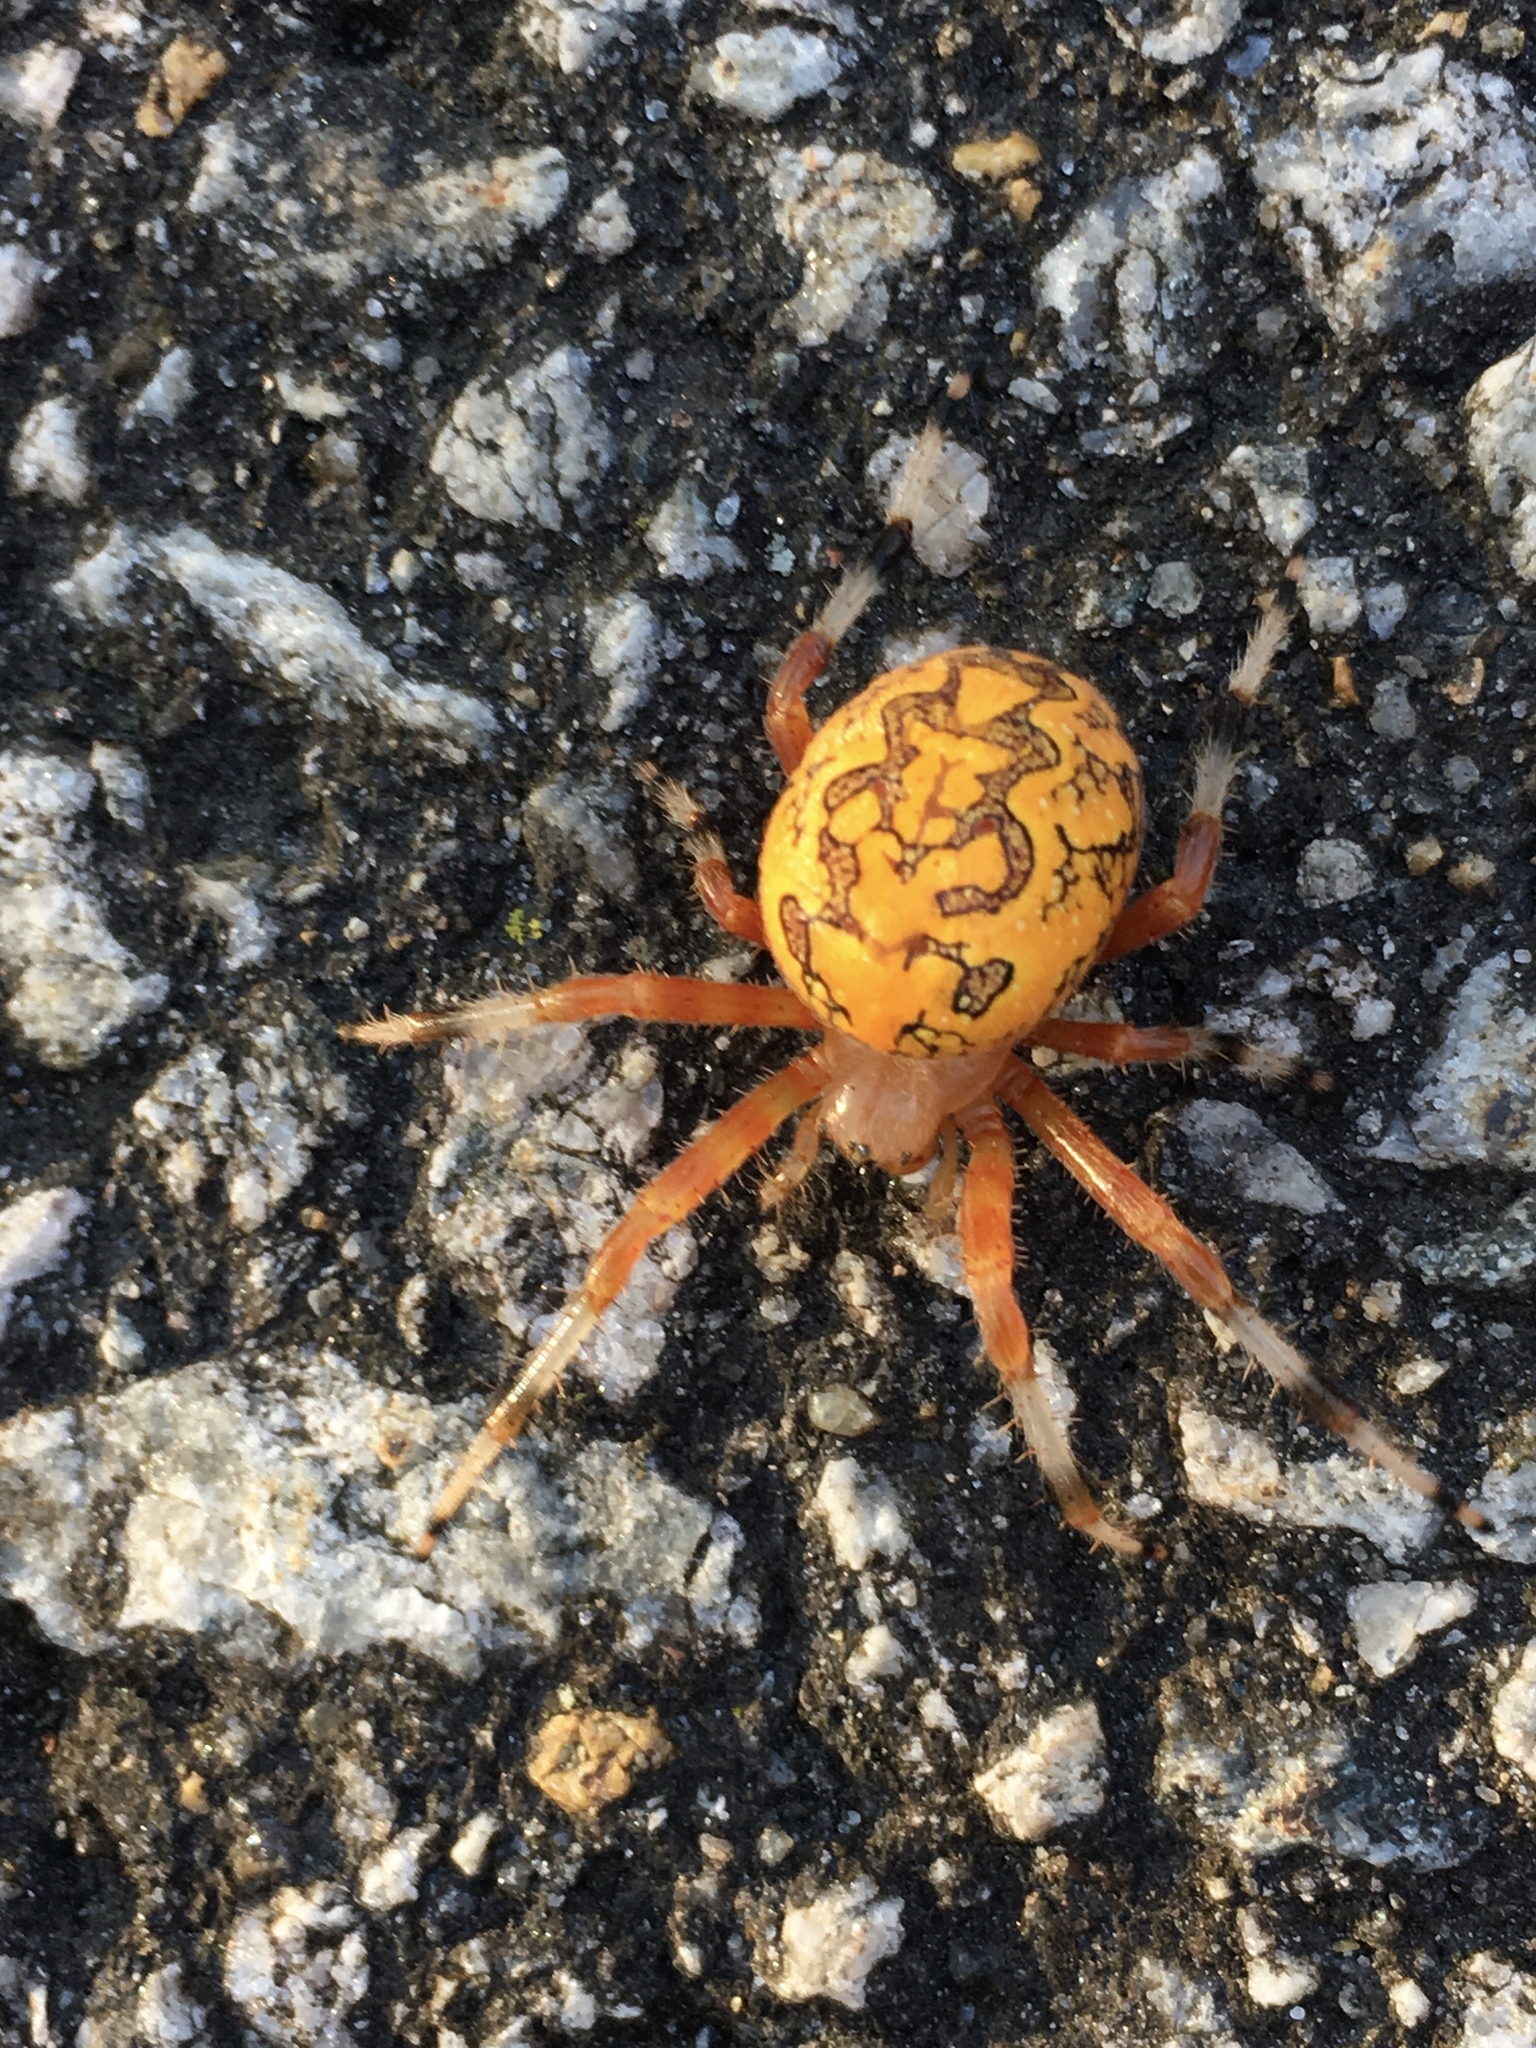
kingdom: Animalia
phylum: Arthropoda
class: Arachnida
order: Araneae
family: Araneidae
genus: Araneus
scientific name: Araneus marmoreus
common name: Marbled orbweaver
